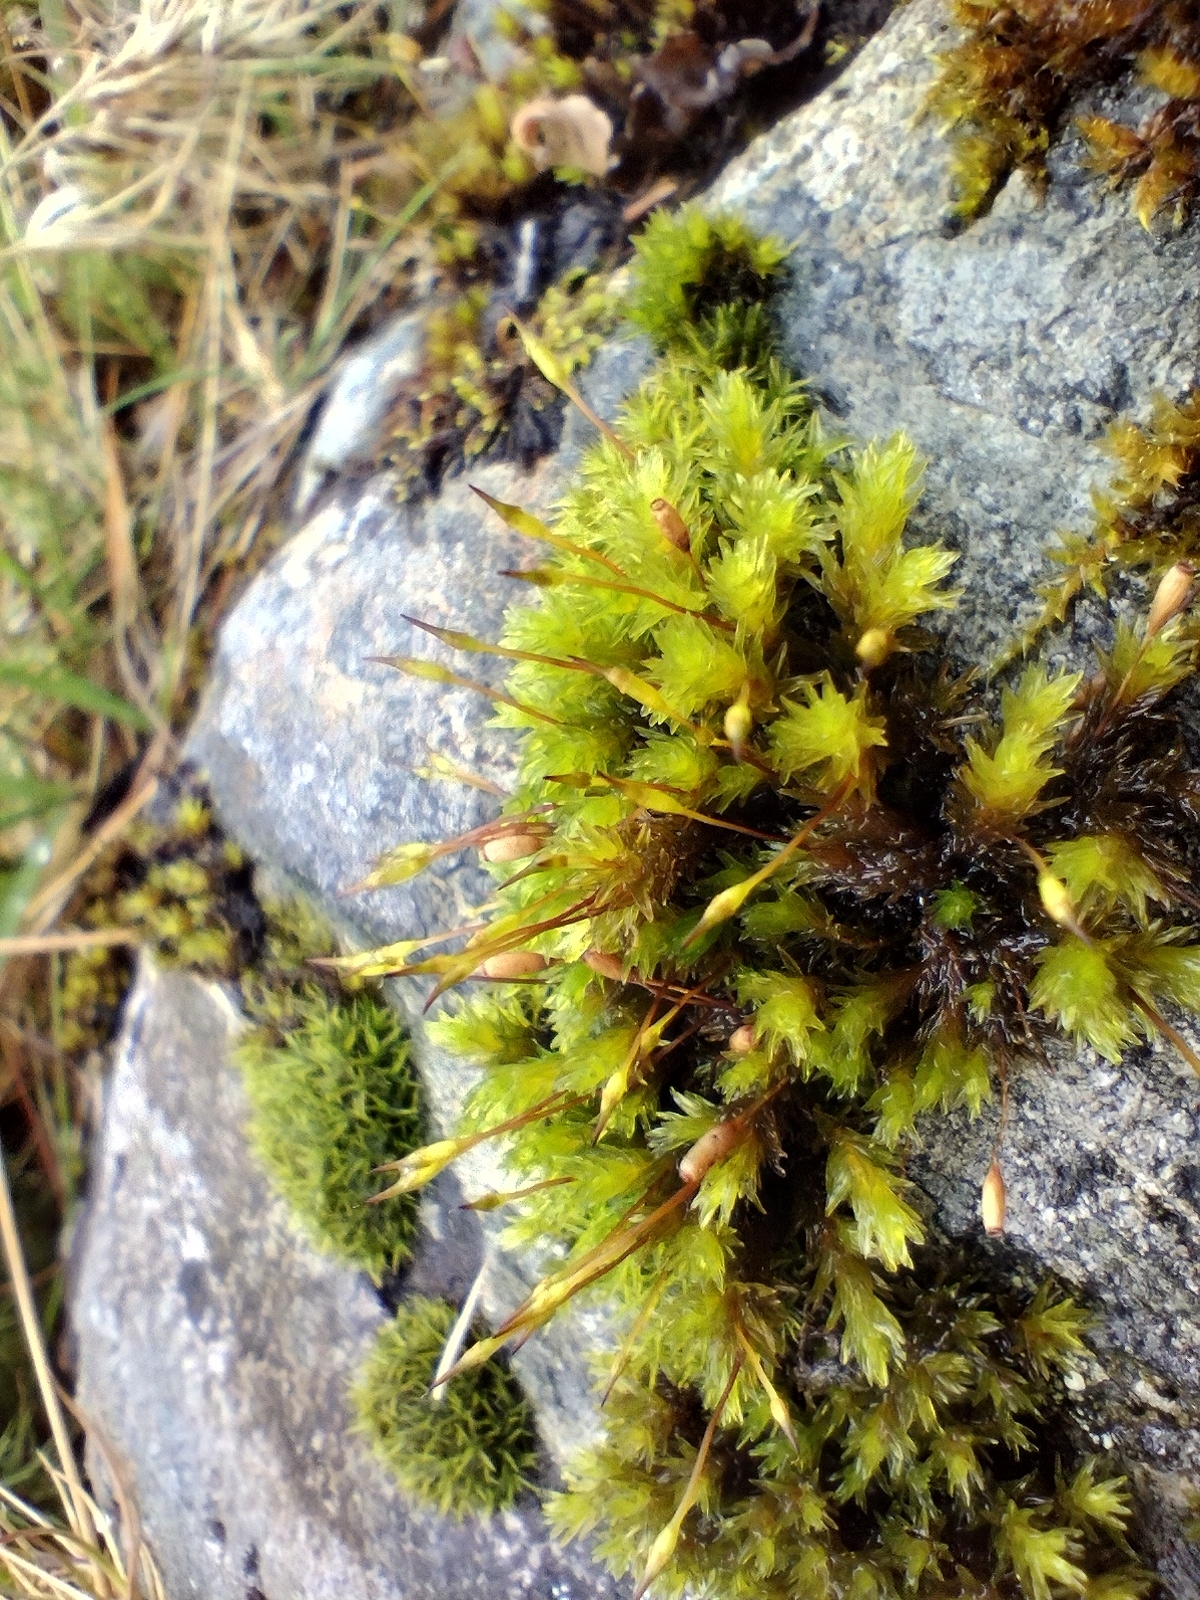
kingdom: Plantae
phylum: Bryophyta
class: Bryopsida
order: Grimmiales
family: Grimmiaceae
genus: Codriophorus
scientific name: Codriophorus acicularis
